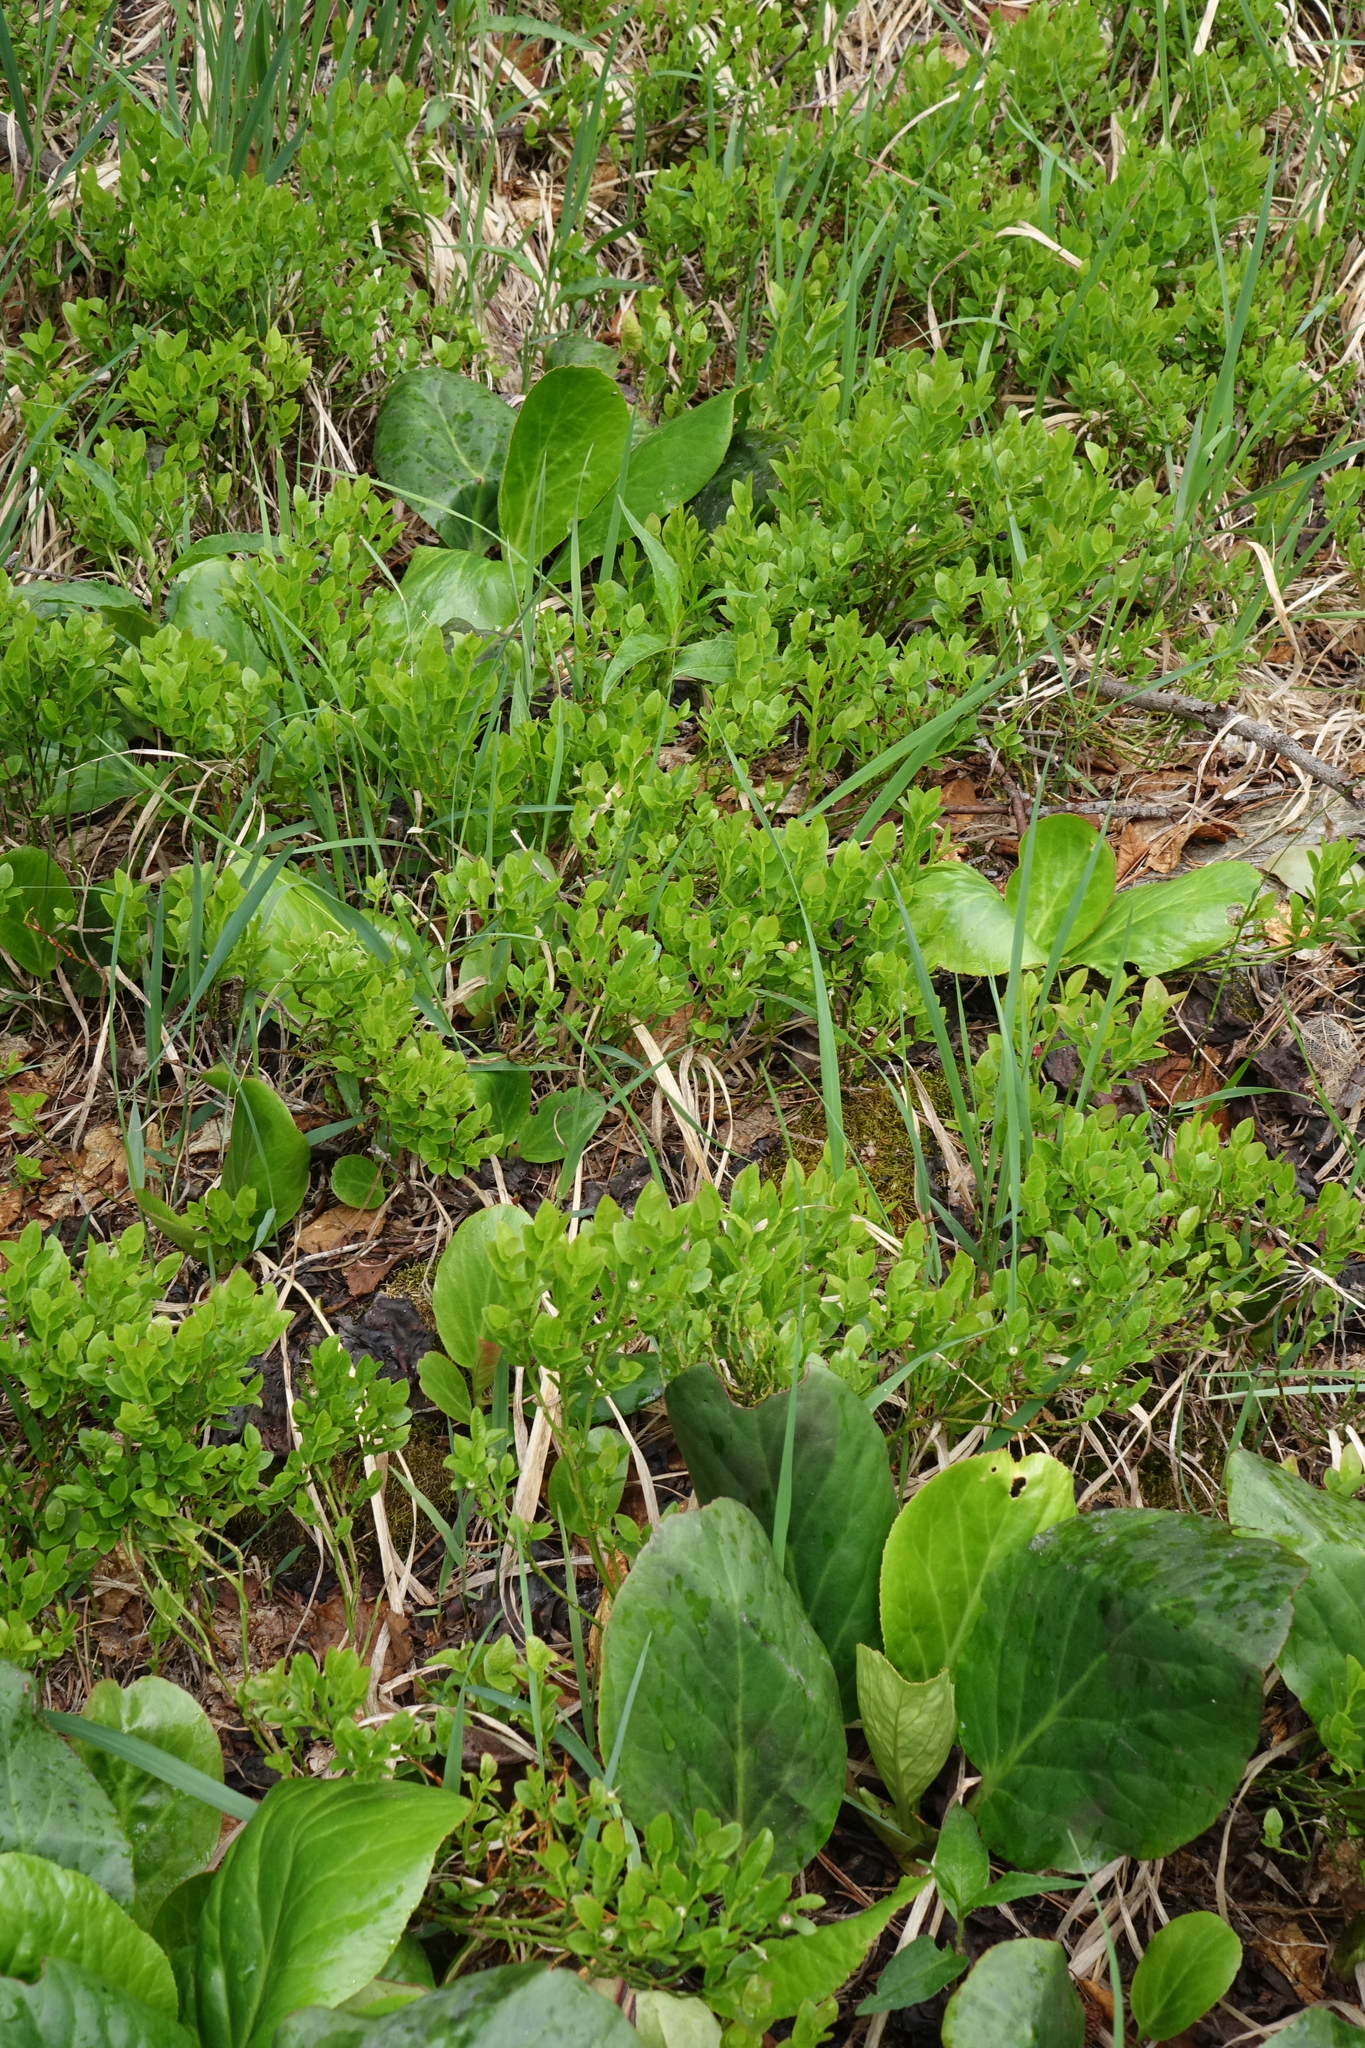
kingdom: Plantae
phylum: Tracheophyta
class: Magnoliopsida
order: Ericales
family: Ericaceae
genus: Vaccinium
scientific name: Vaccinium myrtillus
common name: Bilberry
